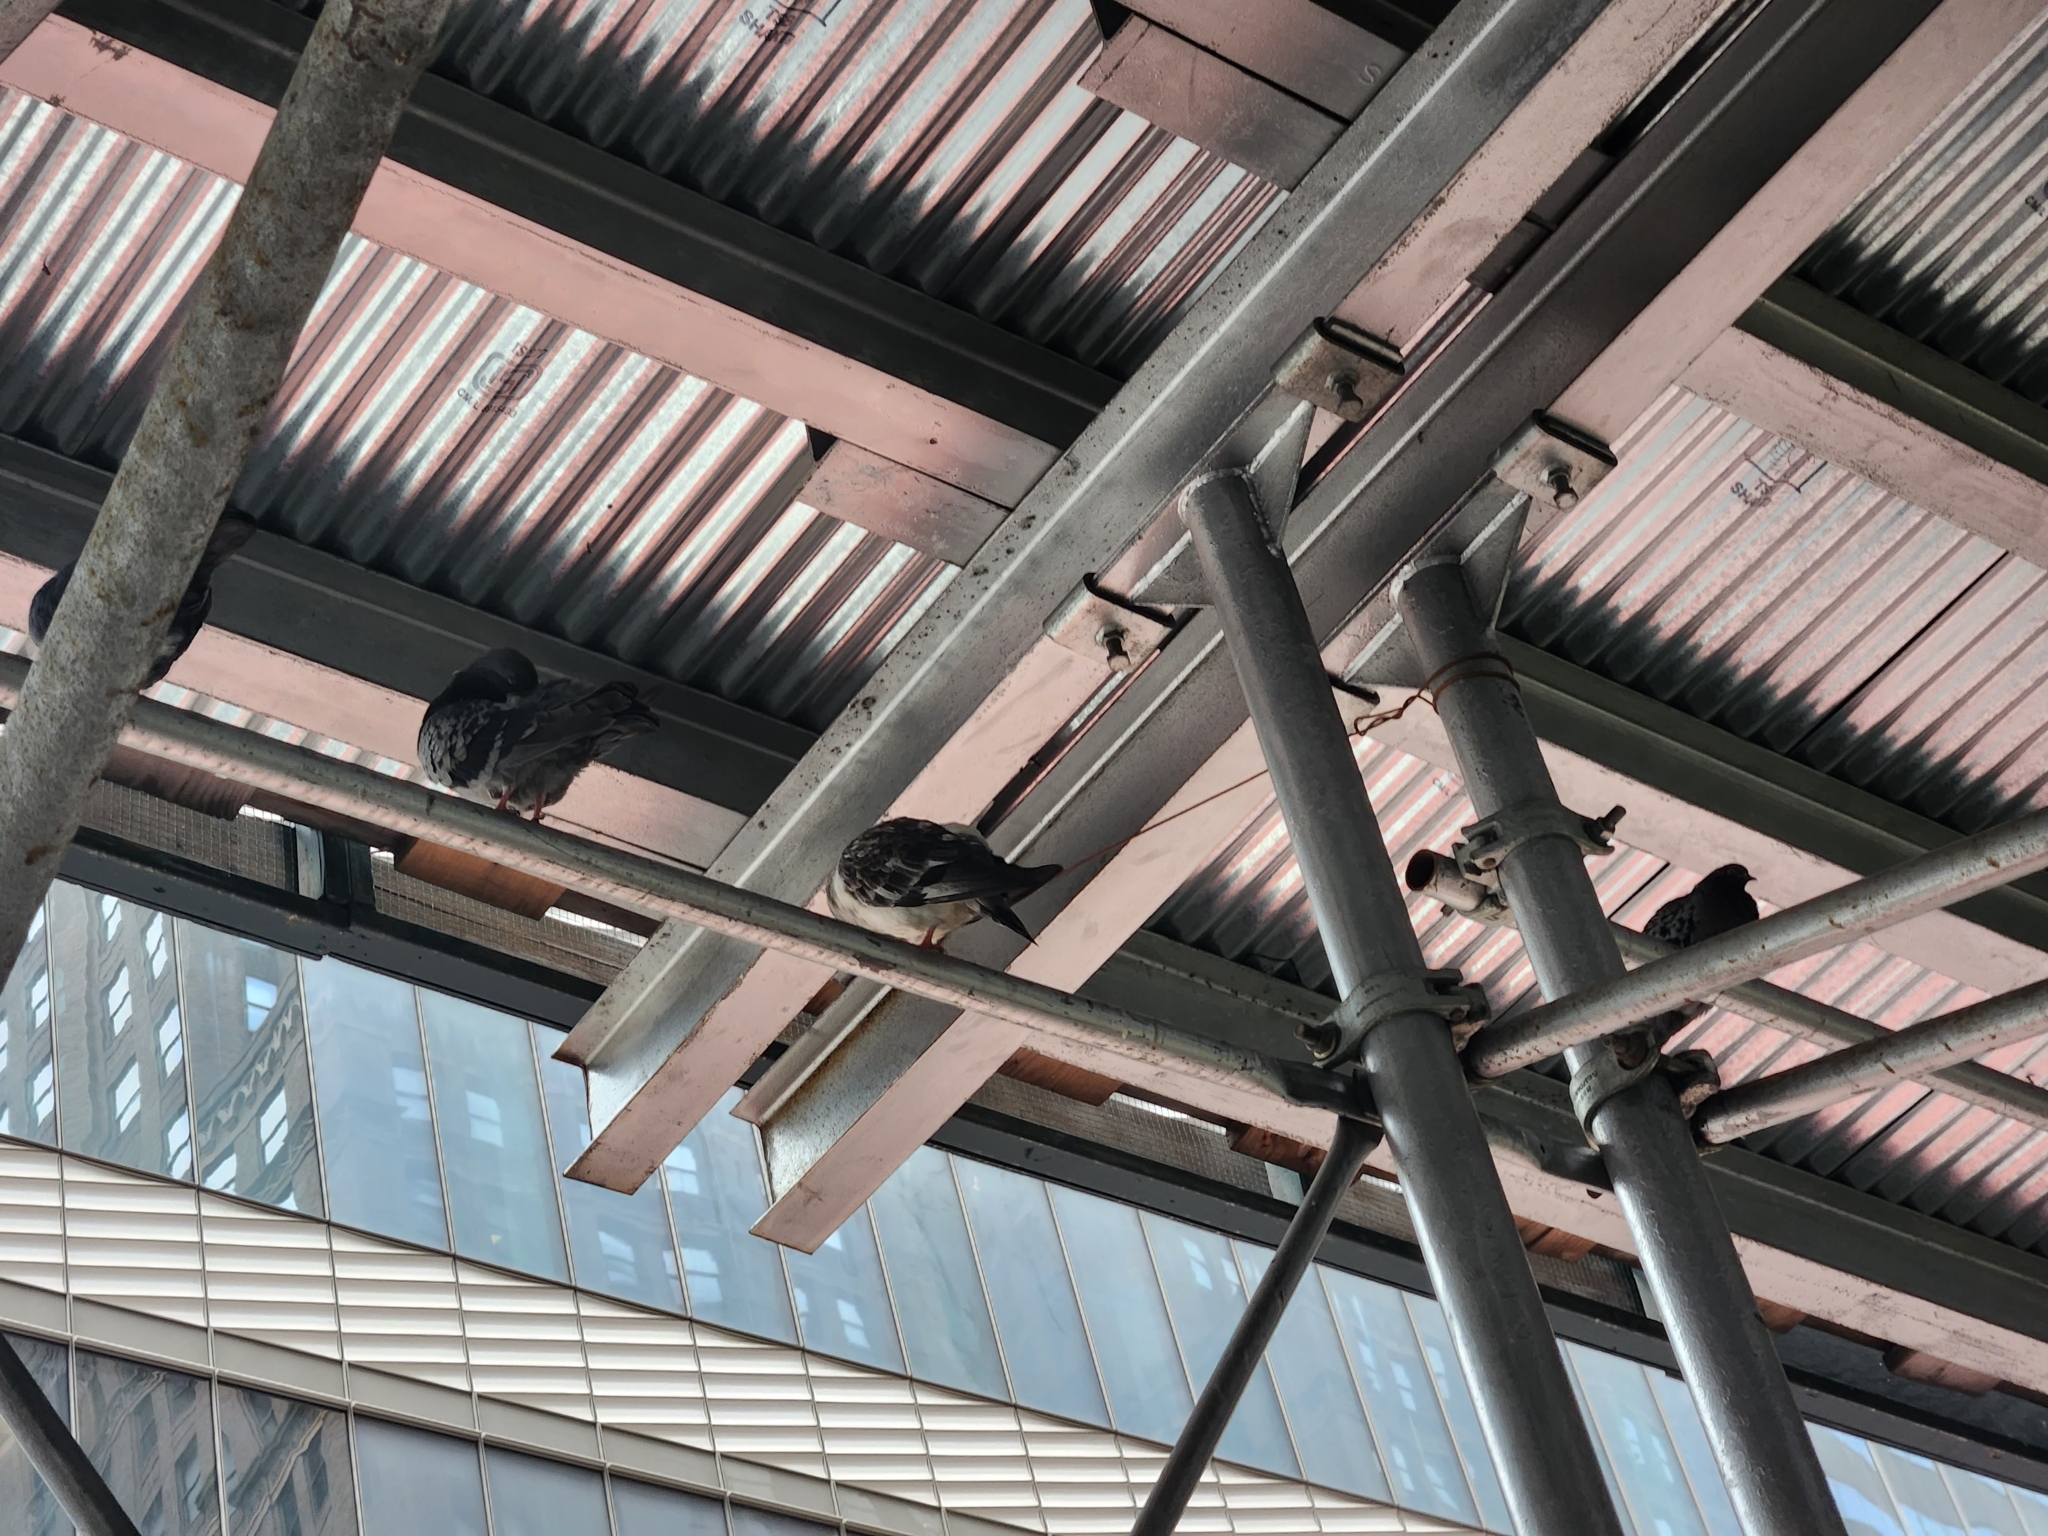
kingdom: Animalia
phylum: Chordata
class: Aves
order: Columbiformes
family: Columbidae
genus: Columba
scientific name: Columba livia
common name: Rock pigeon
